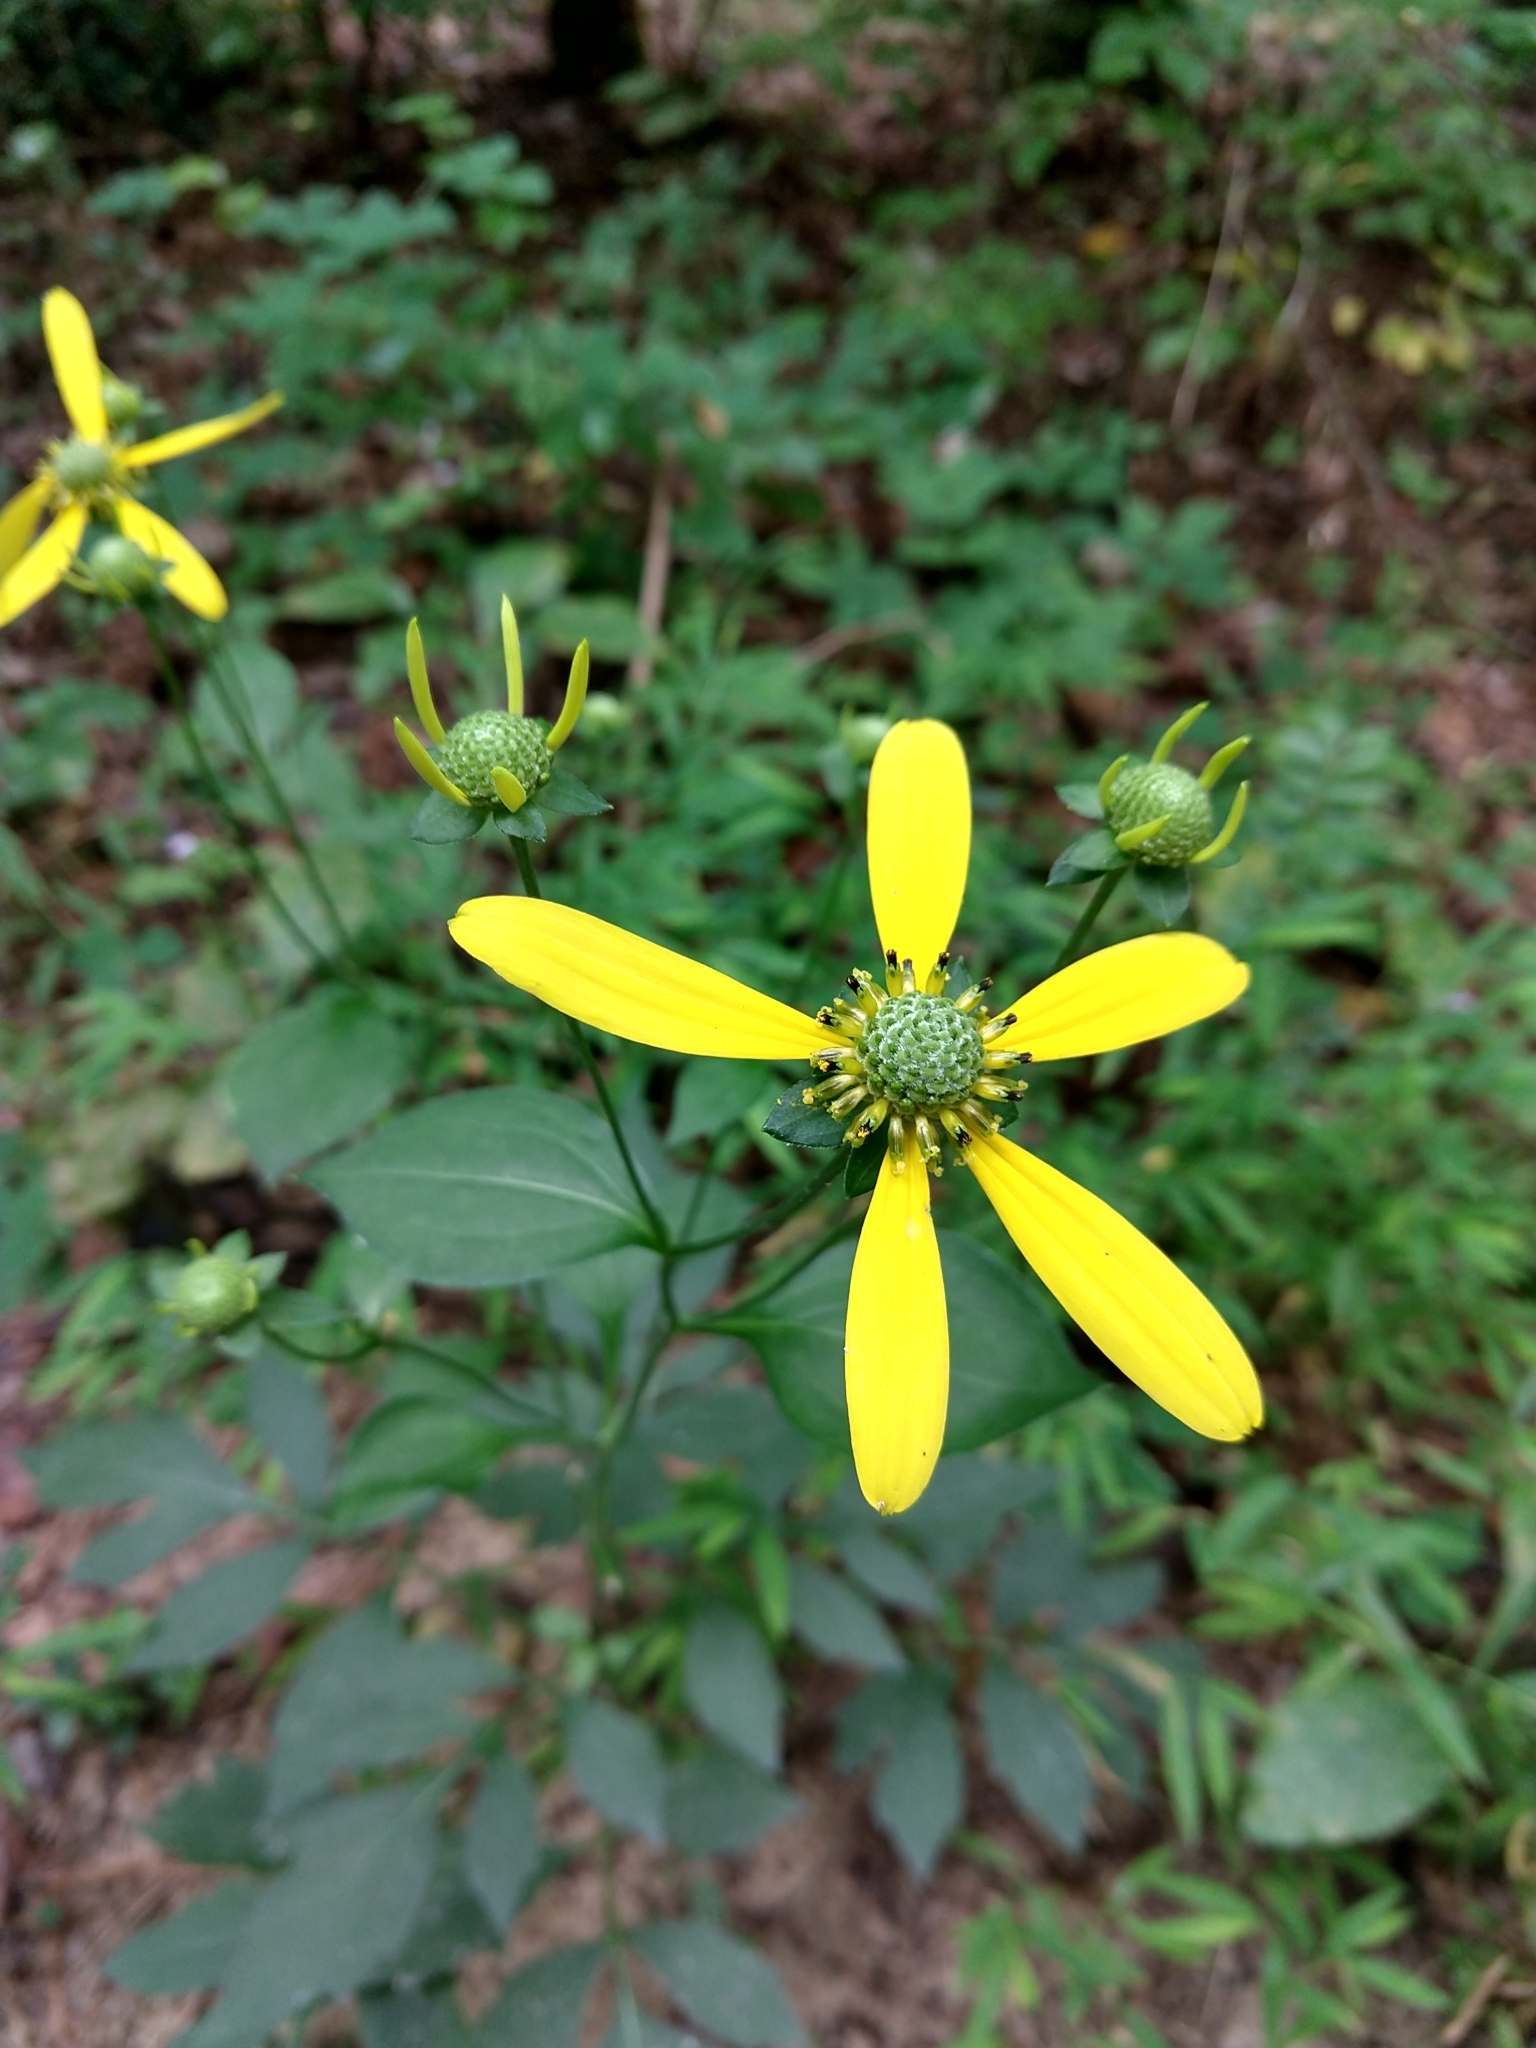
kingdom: Plantae
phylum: Tracheophyta
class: Magnoliopsida
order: Asterales
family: Asteraceae
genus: Rudbeckia
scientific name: Rudbeckia laciniata
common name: Coneflower
